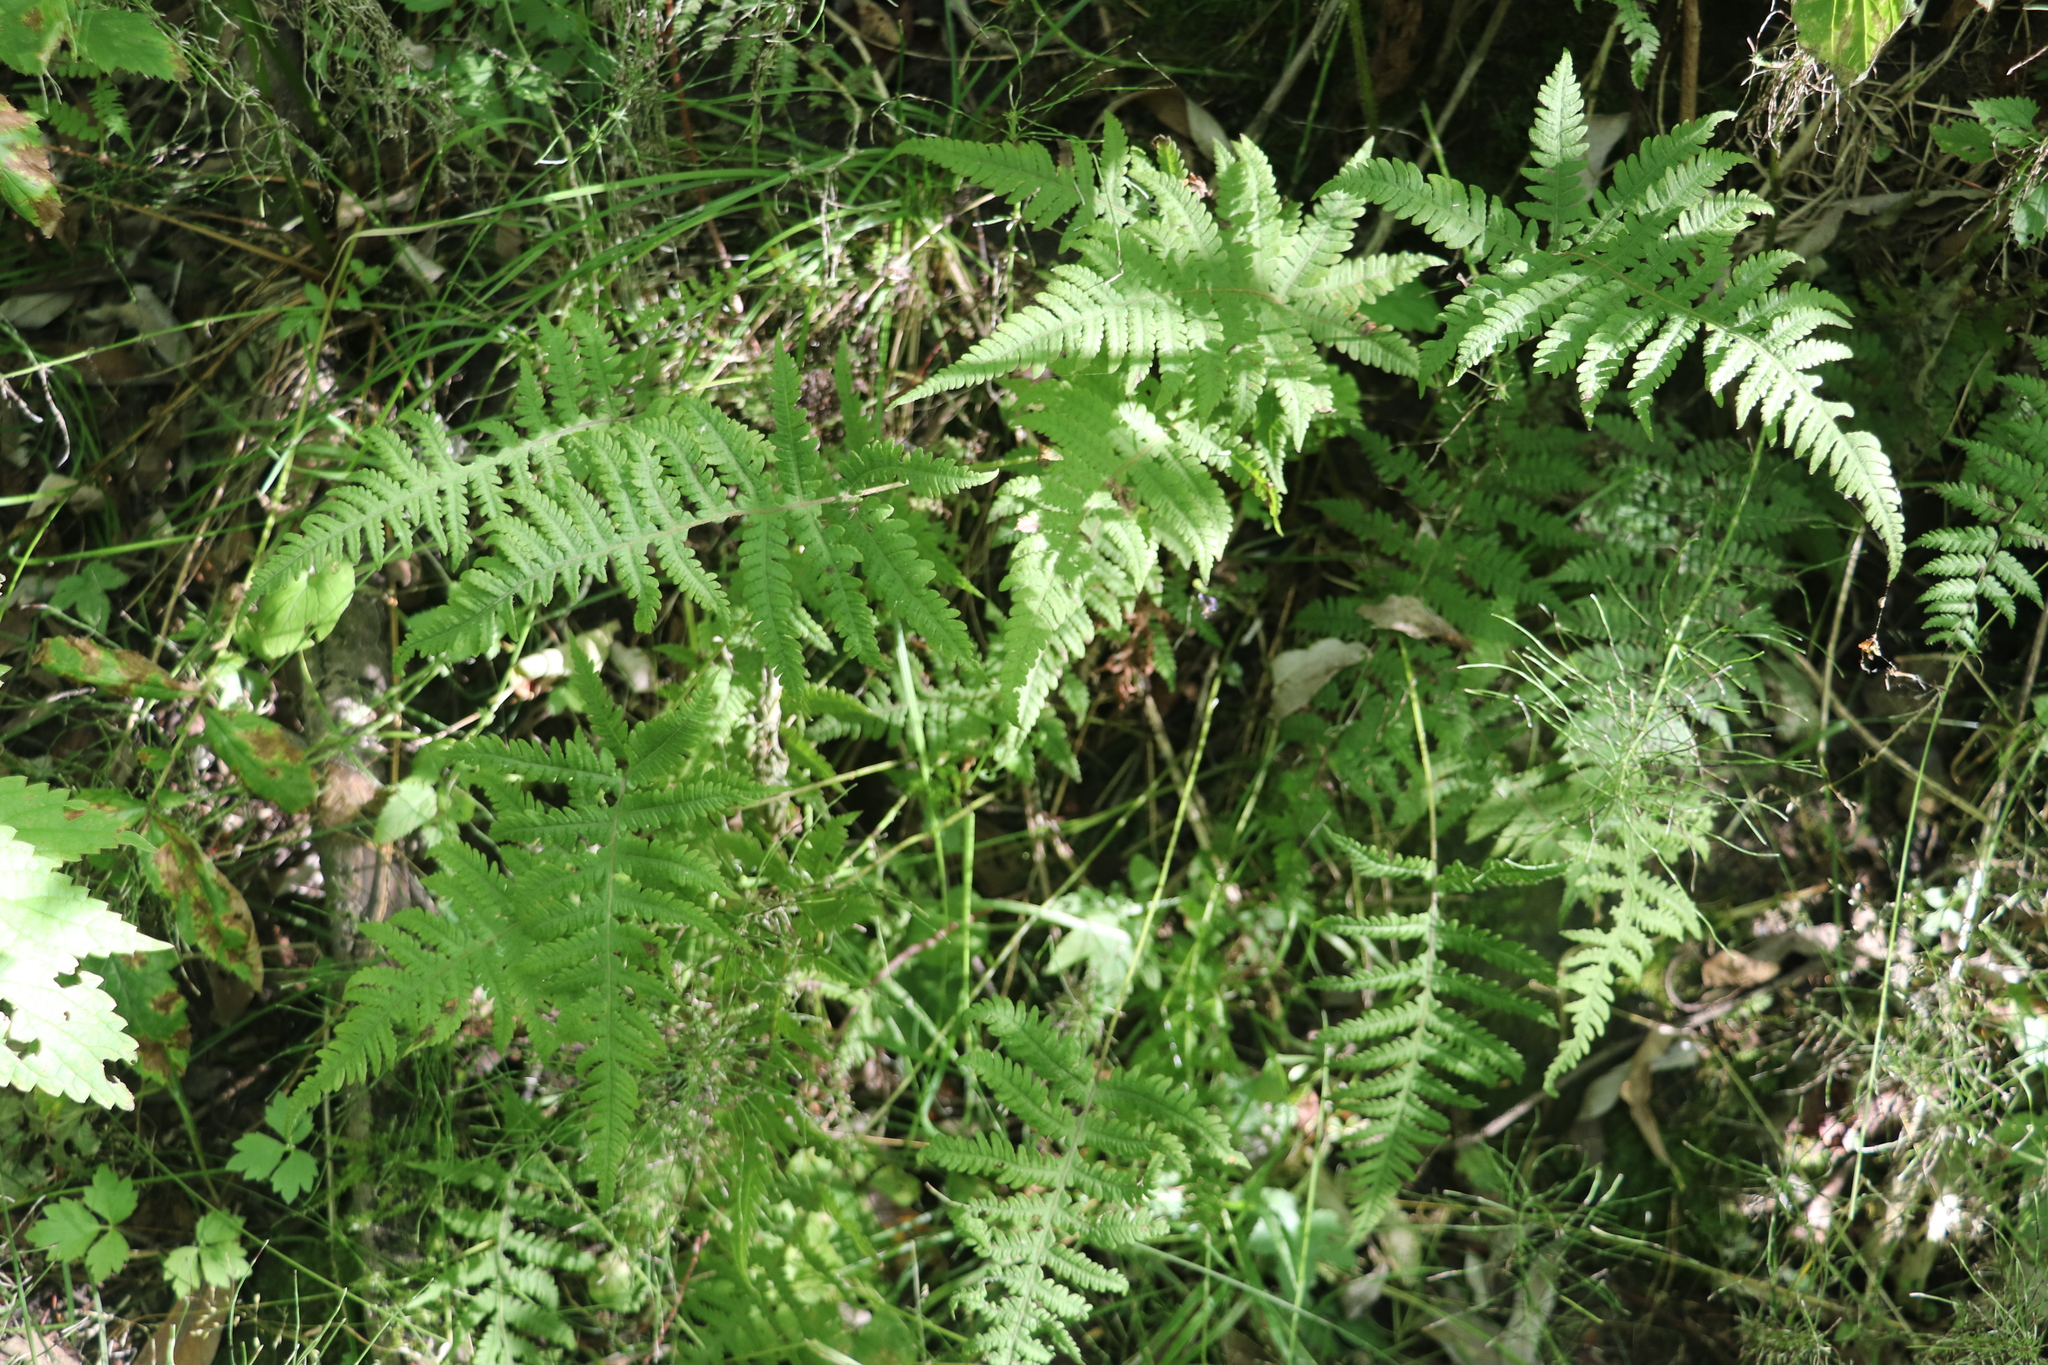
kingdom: Plantae
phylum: Tracheophyta
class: Polypodiopsida
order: Polypodiales
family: Thelypteridaceae
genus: Phegopteris
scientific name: Phegopteris connectilis
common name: Beech fern
